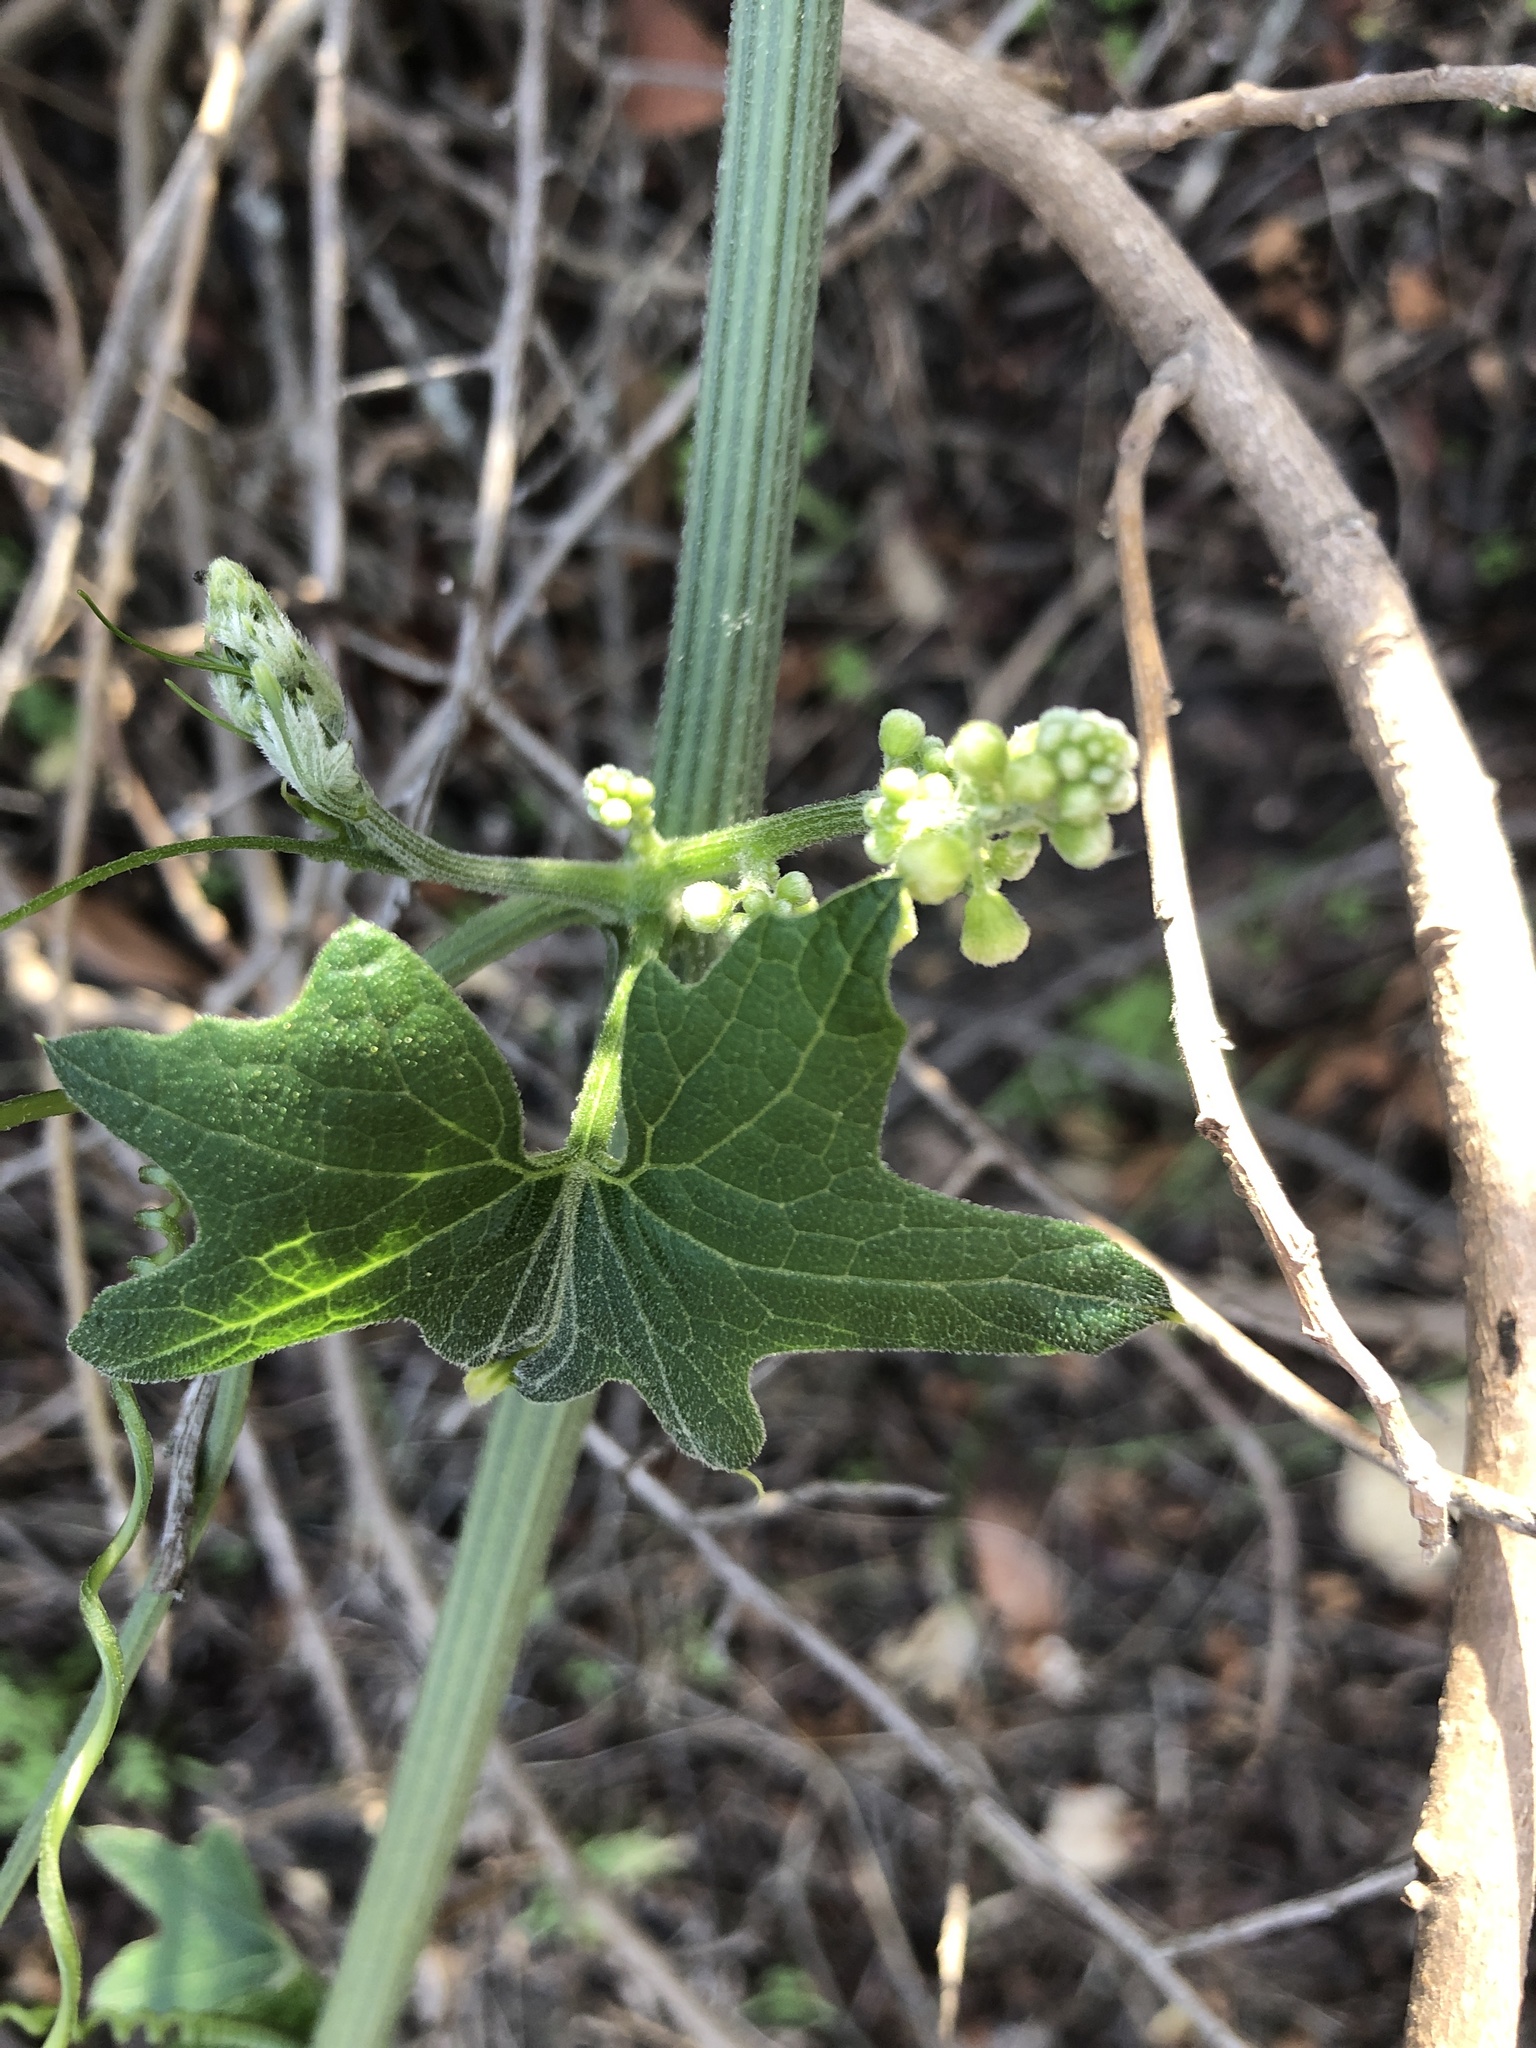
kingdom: Plantae
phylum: Tracheophyta
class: Magnoliopsida
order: Cucurbitales
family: Cucurbitaceae
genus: Marah
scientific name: Marah macrocarpa
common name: Cucamonga manroot
